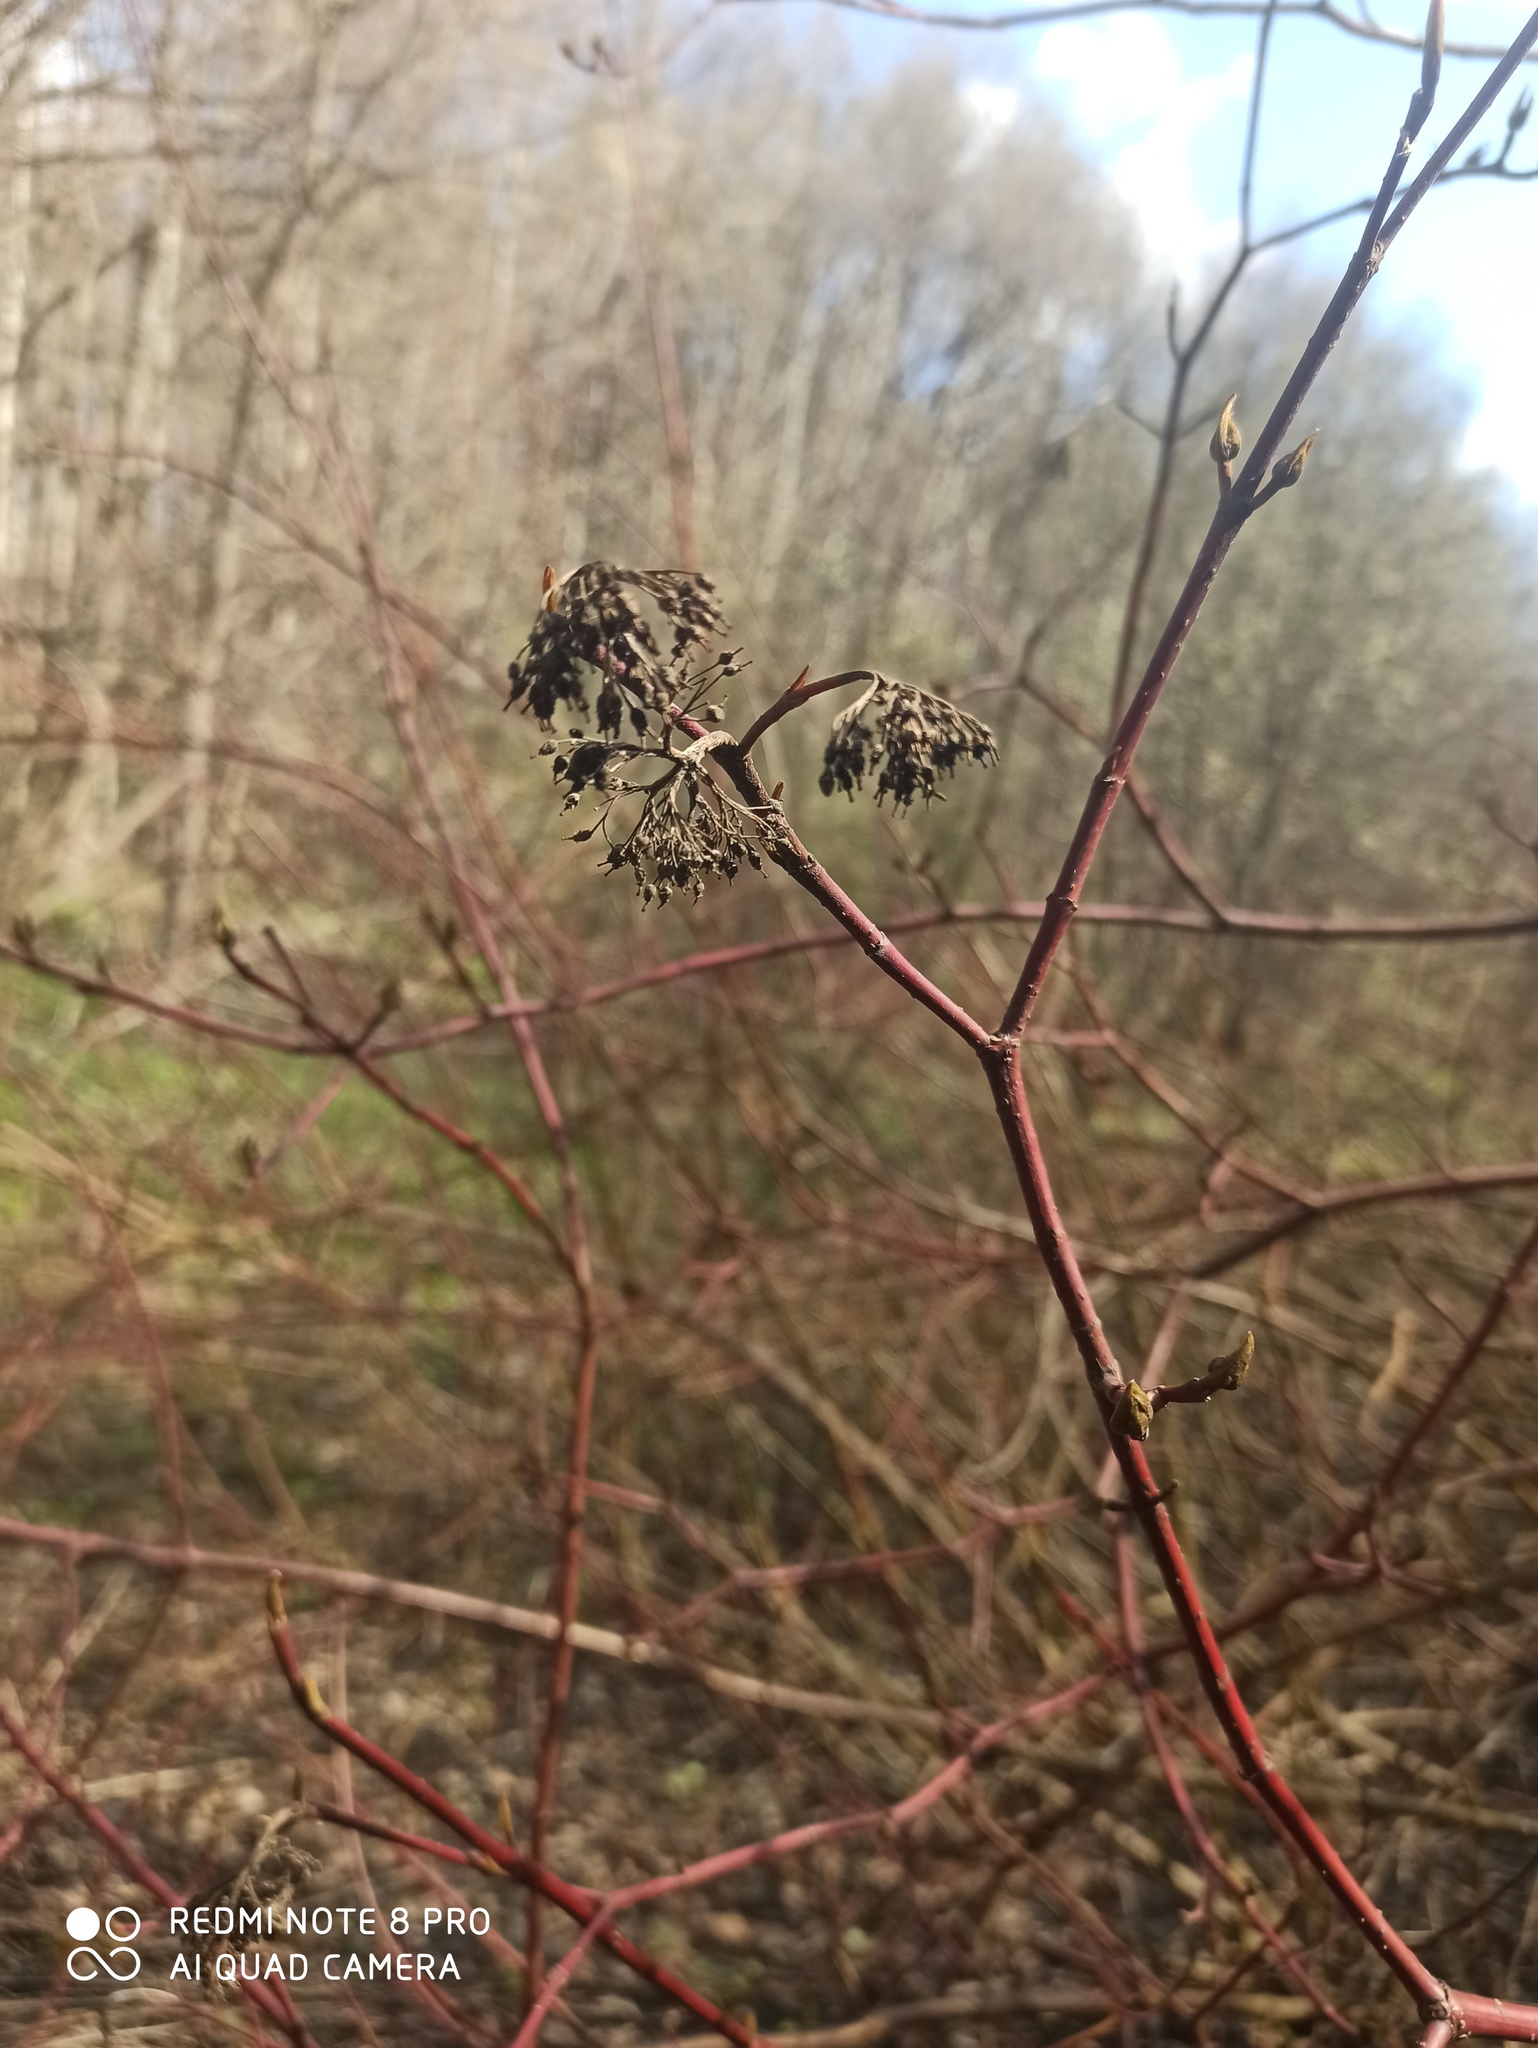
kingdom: Plantae
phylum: Tracheophyta
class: Magnoliopsida
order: Cornales
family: Cornaceae
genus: Cornus
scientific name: Cornus alba
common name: White dogwood
